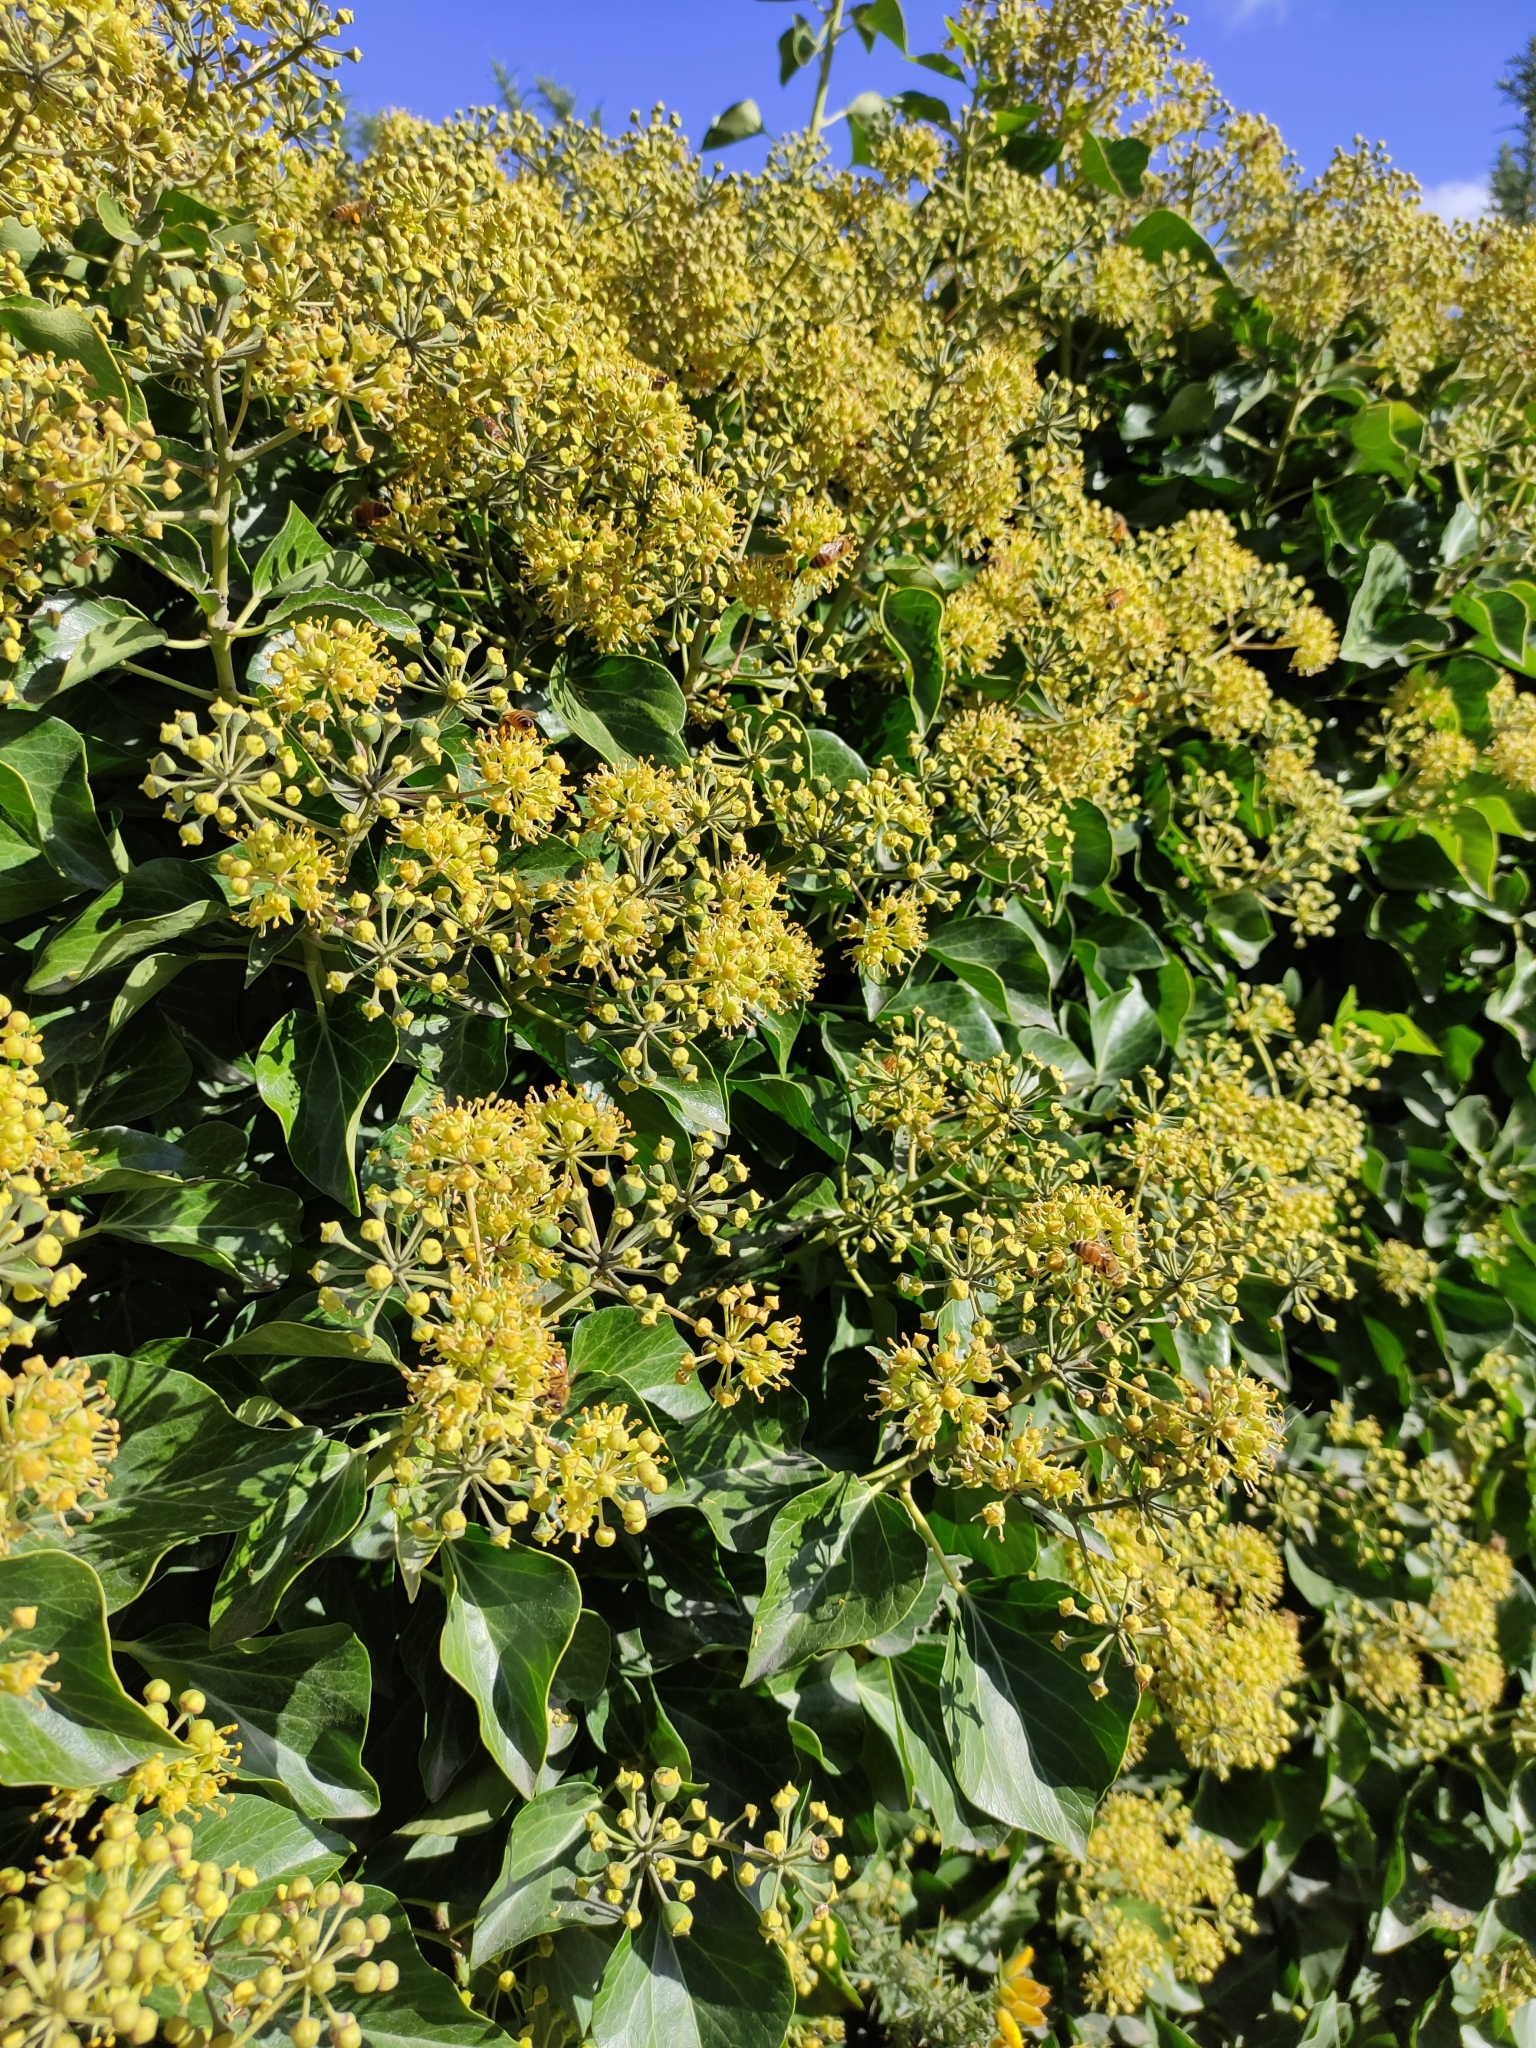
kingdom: Animalia
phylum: Arthropoda
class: Insecta
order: Hymenoptera
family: Apidae
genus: Apis
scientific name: Apis mellifera
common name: Honey bee
